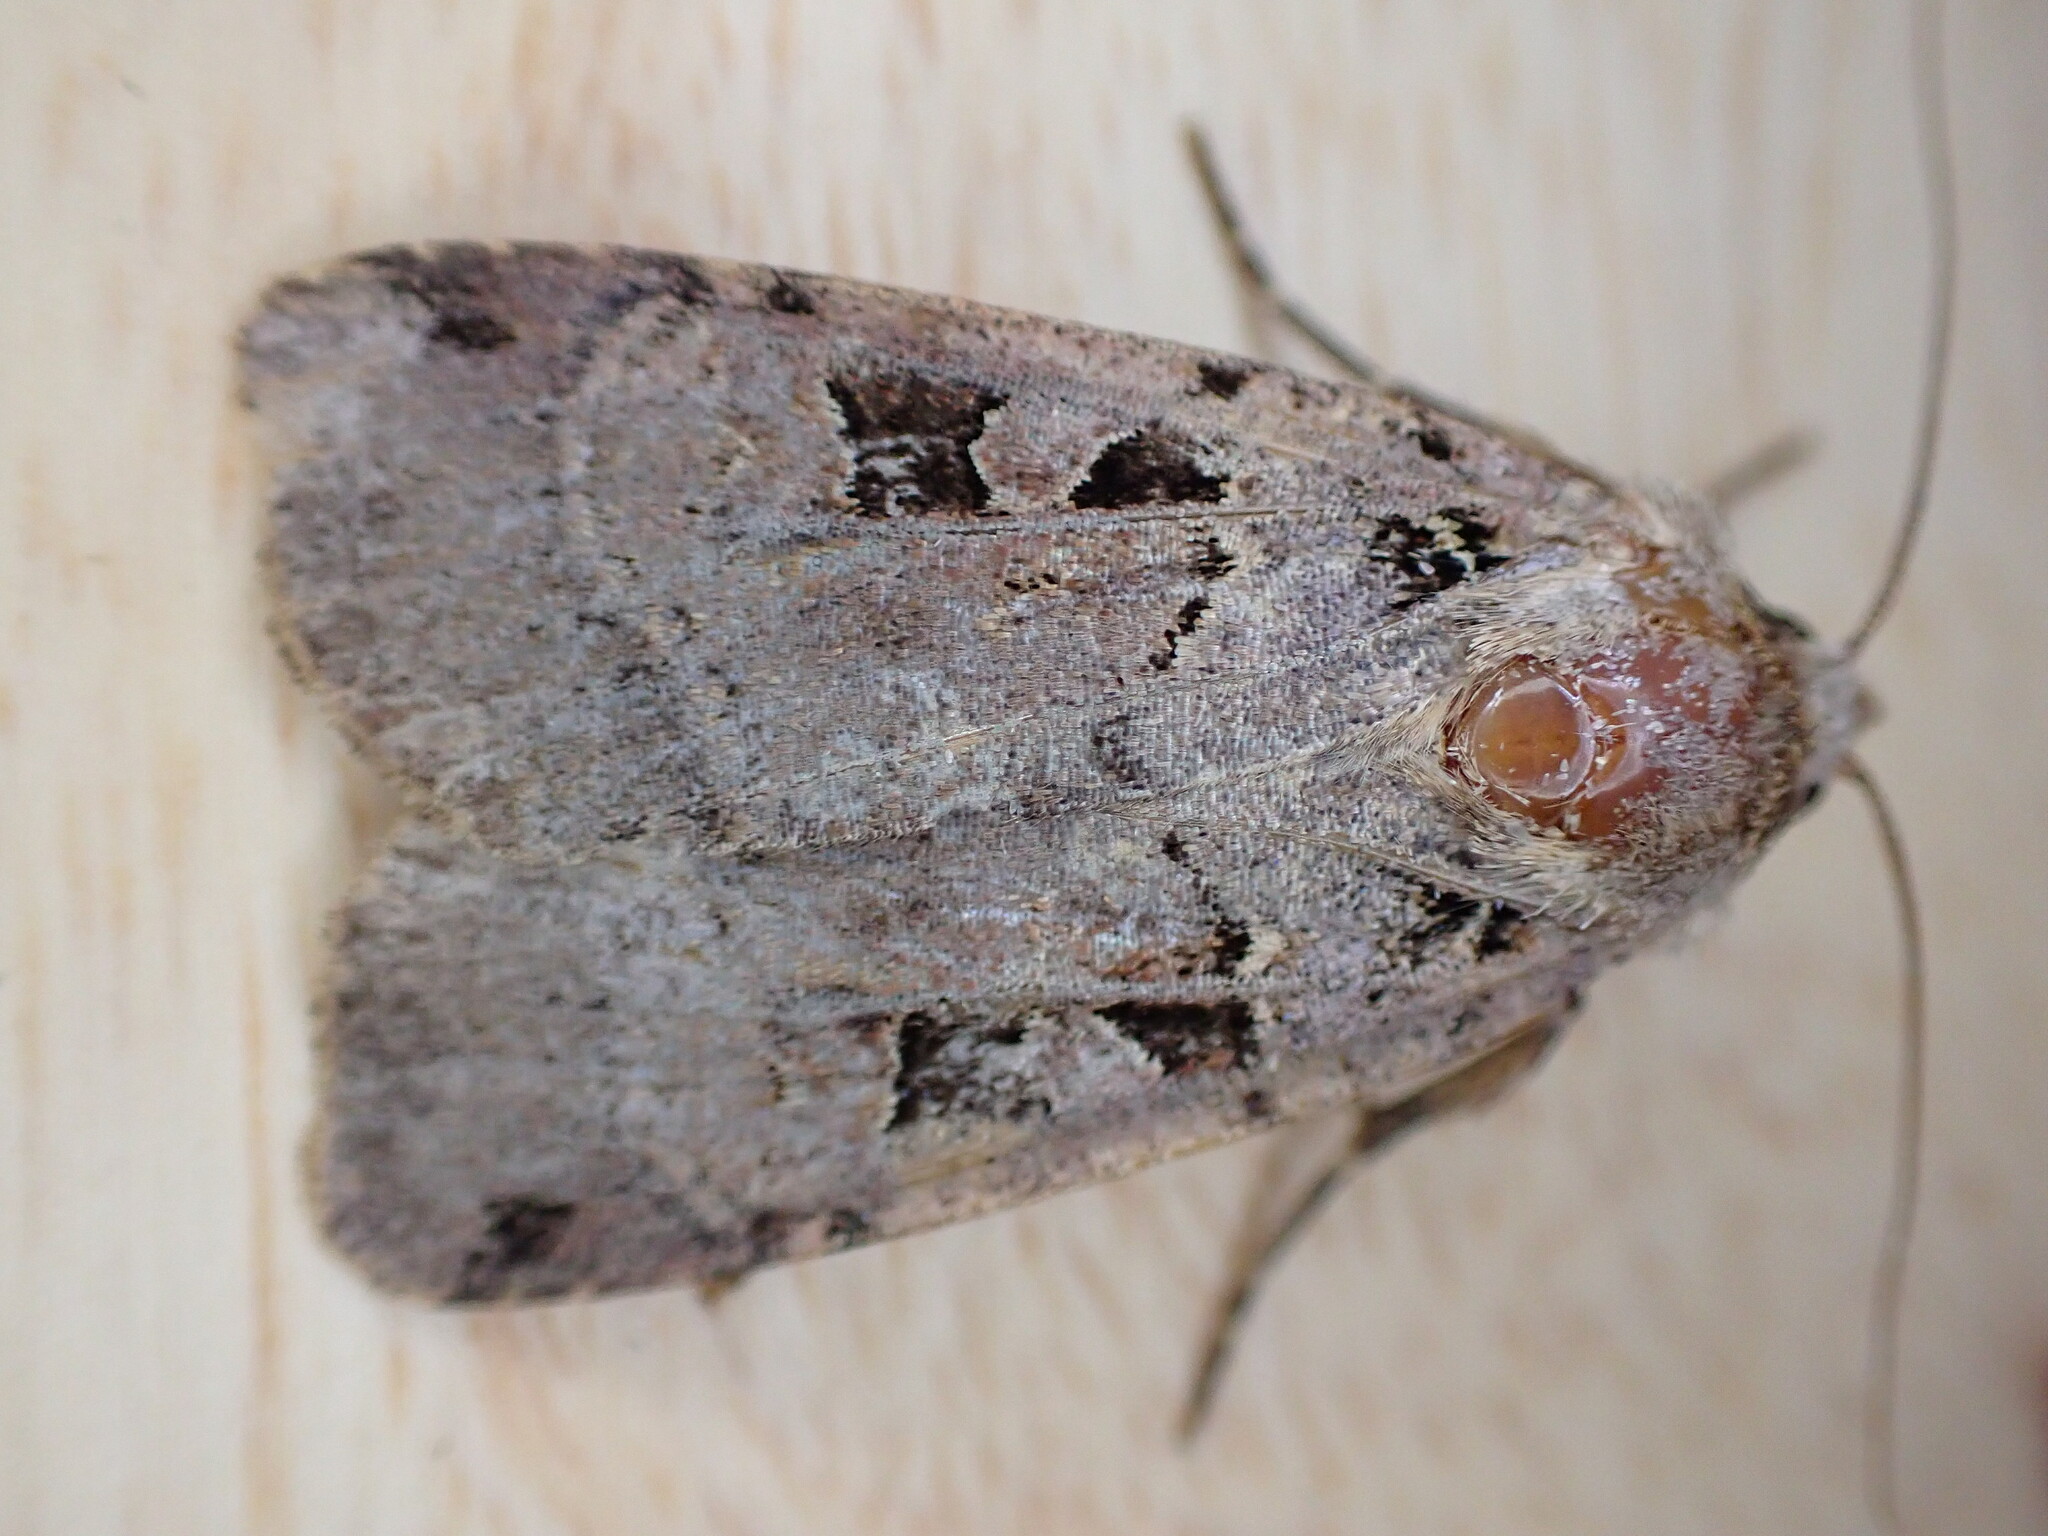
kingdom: Animalia
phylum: Arthropoda
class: Insecta
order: Lepidoptera
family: Noctuidae
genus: Xestia
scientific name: Xestia triangulum
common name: Double square-spot
